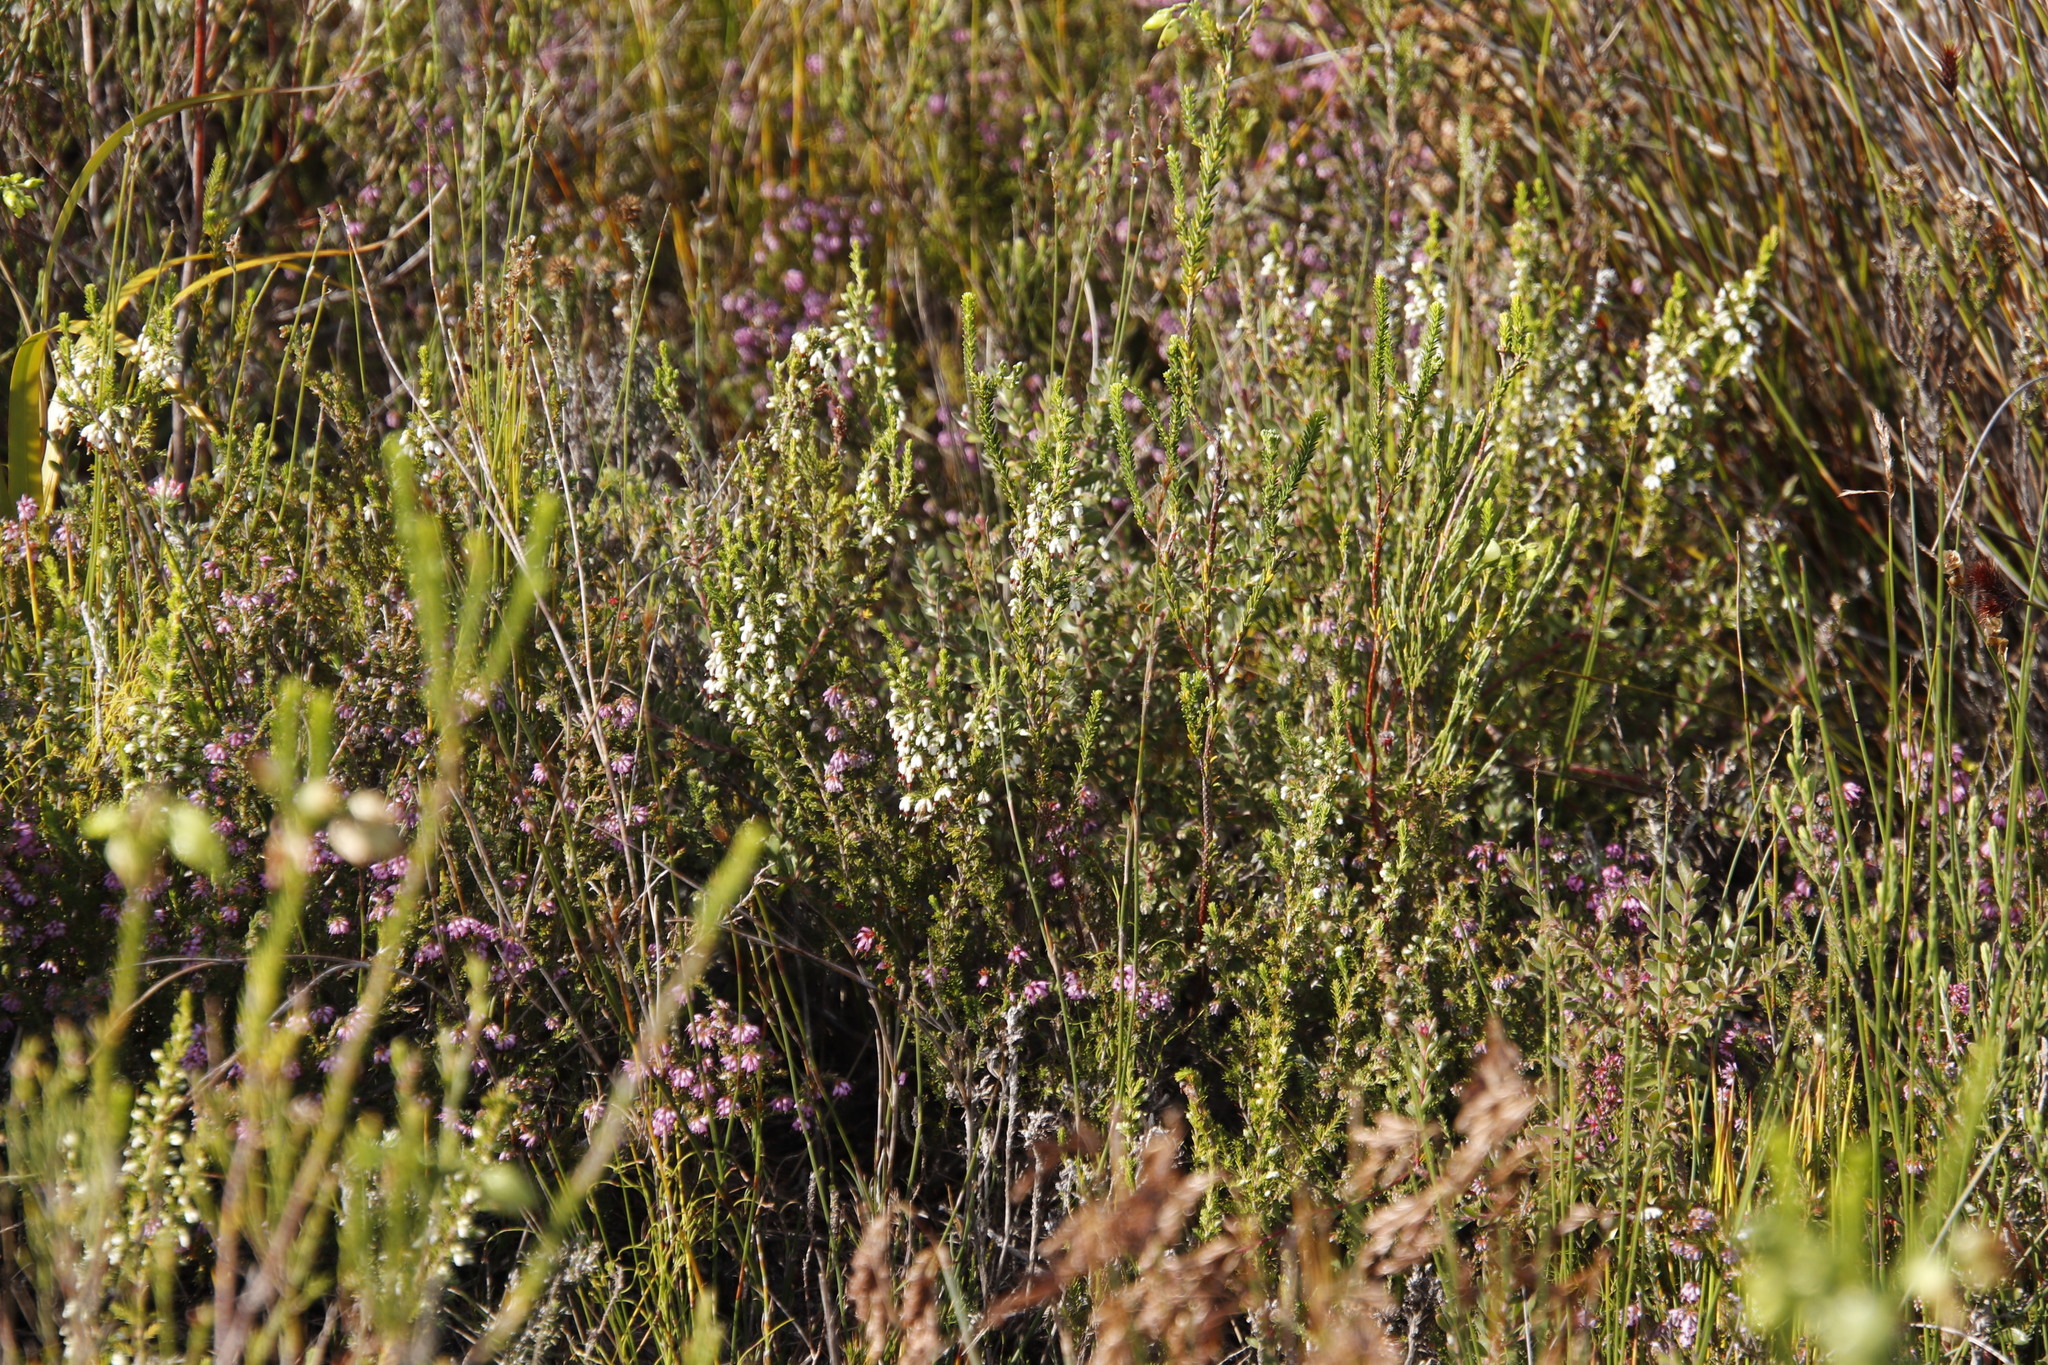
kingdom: Plantae
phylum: Tracheophyta
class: Magnoliopsida
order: Ericales
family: Ericaceae
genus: Erica
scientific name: Erica imbricata
